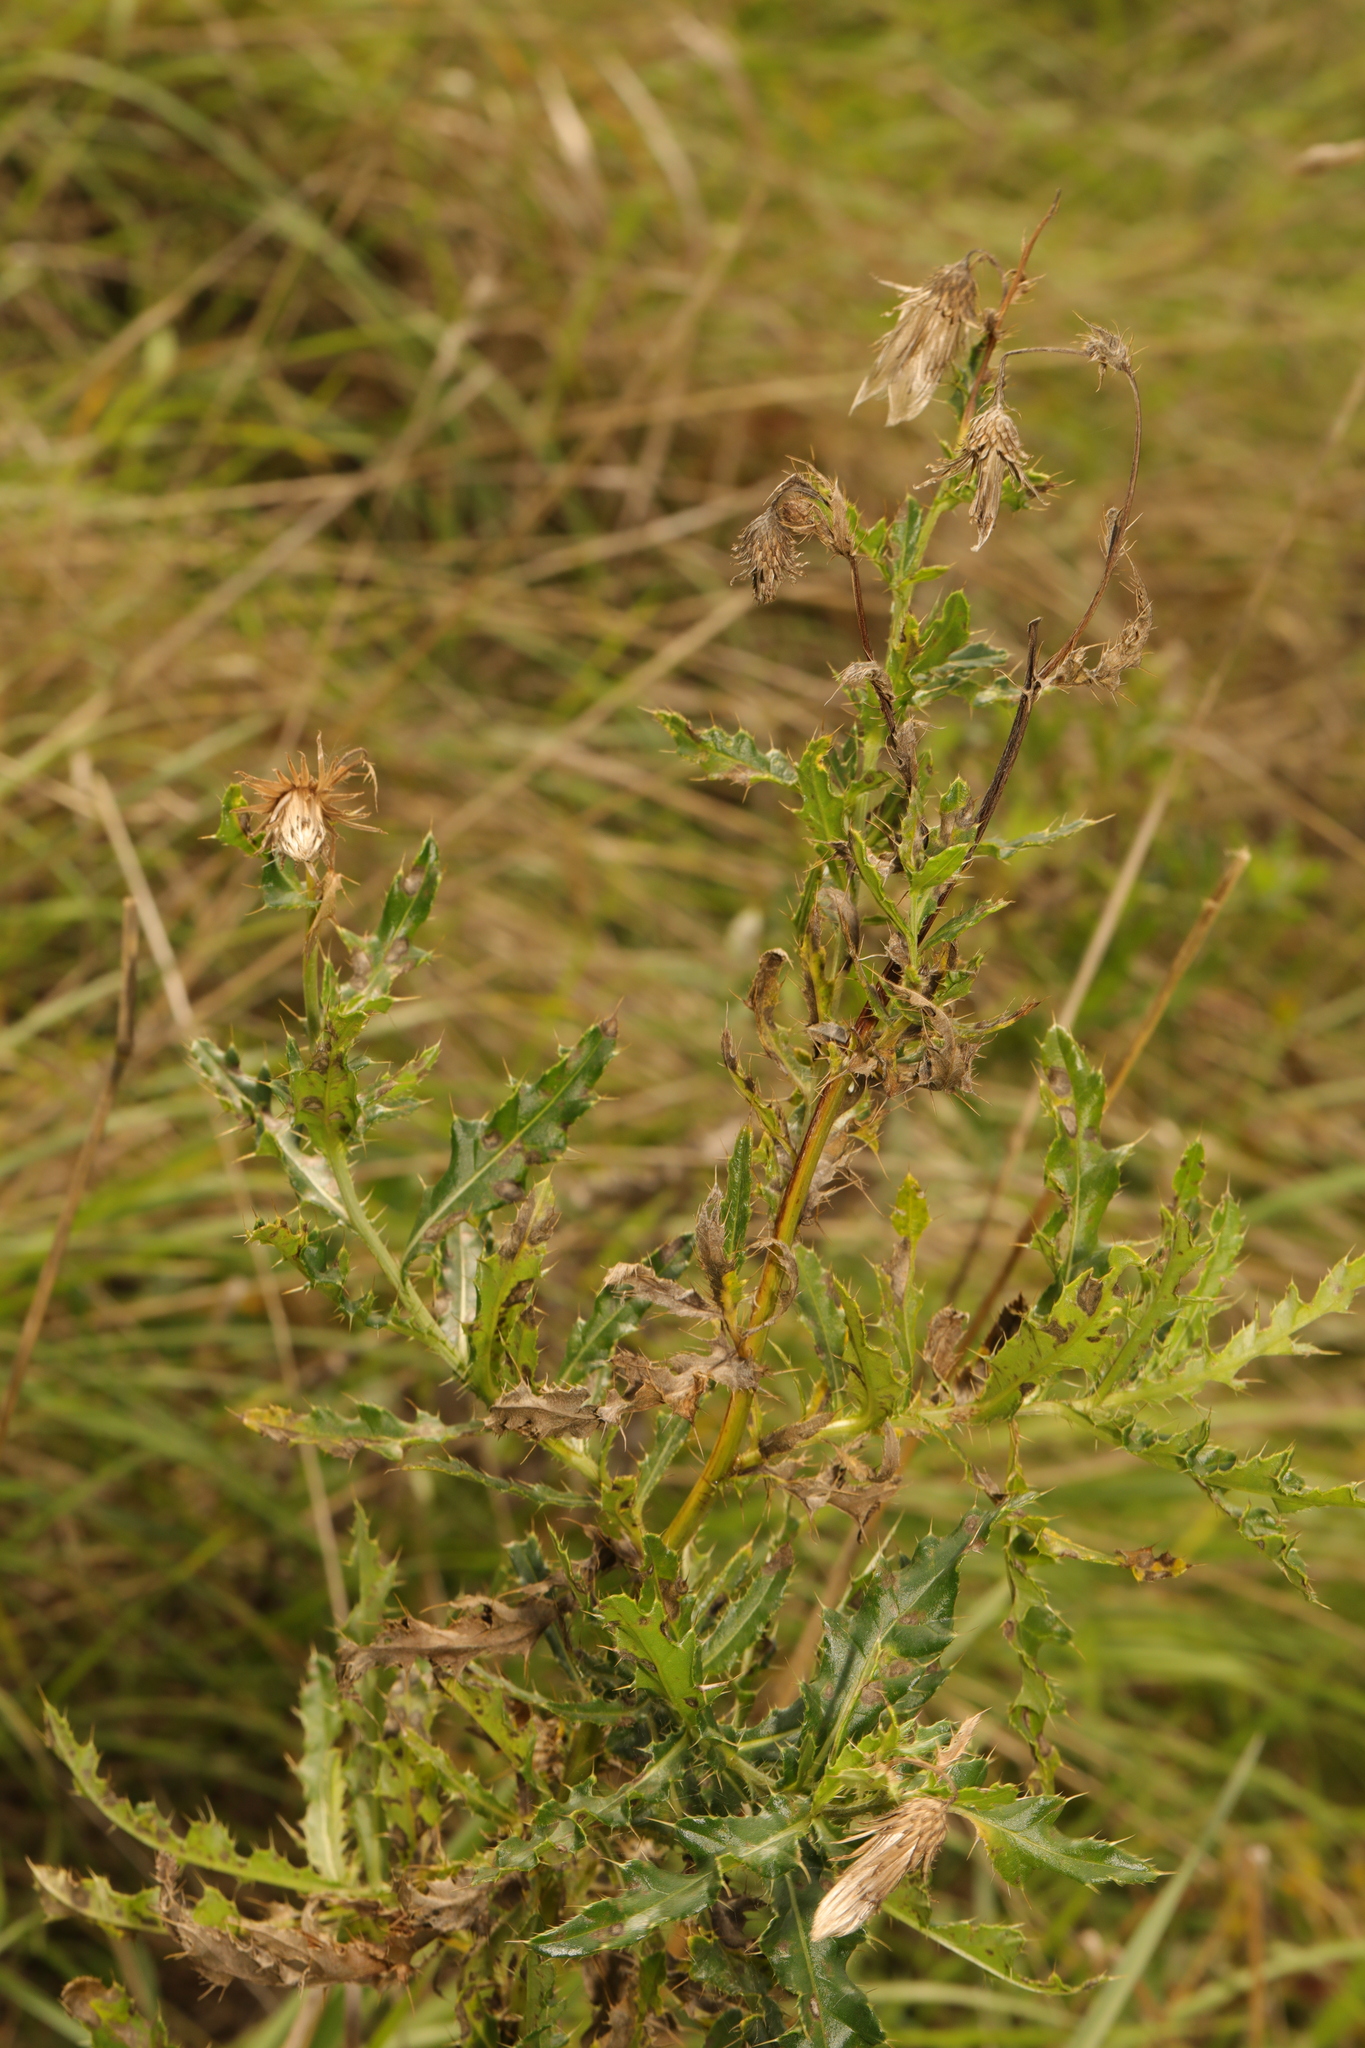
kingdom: Plantae
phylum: Tracheophyta
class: Magnoliopsida
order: Asterales
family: Asteraceae
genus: Cirsium
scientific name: Cirsium arvense
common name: Creeping thistle
